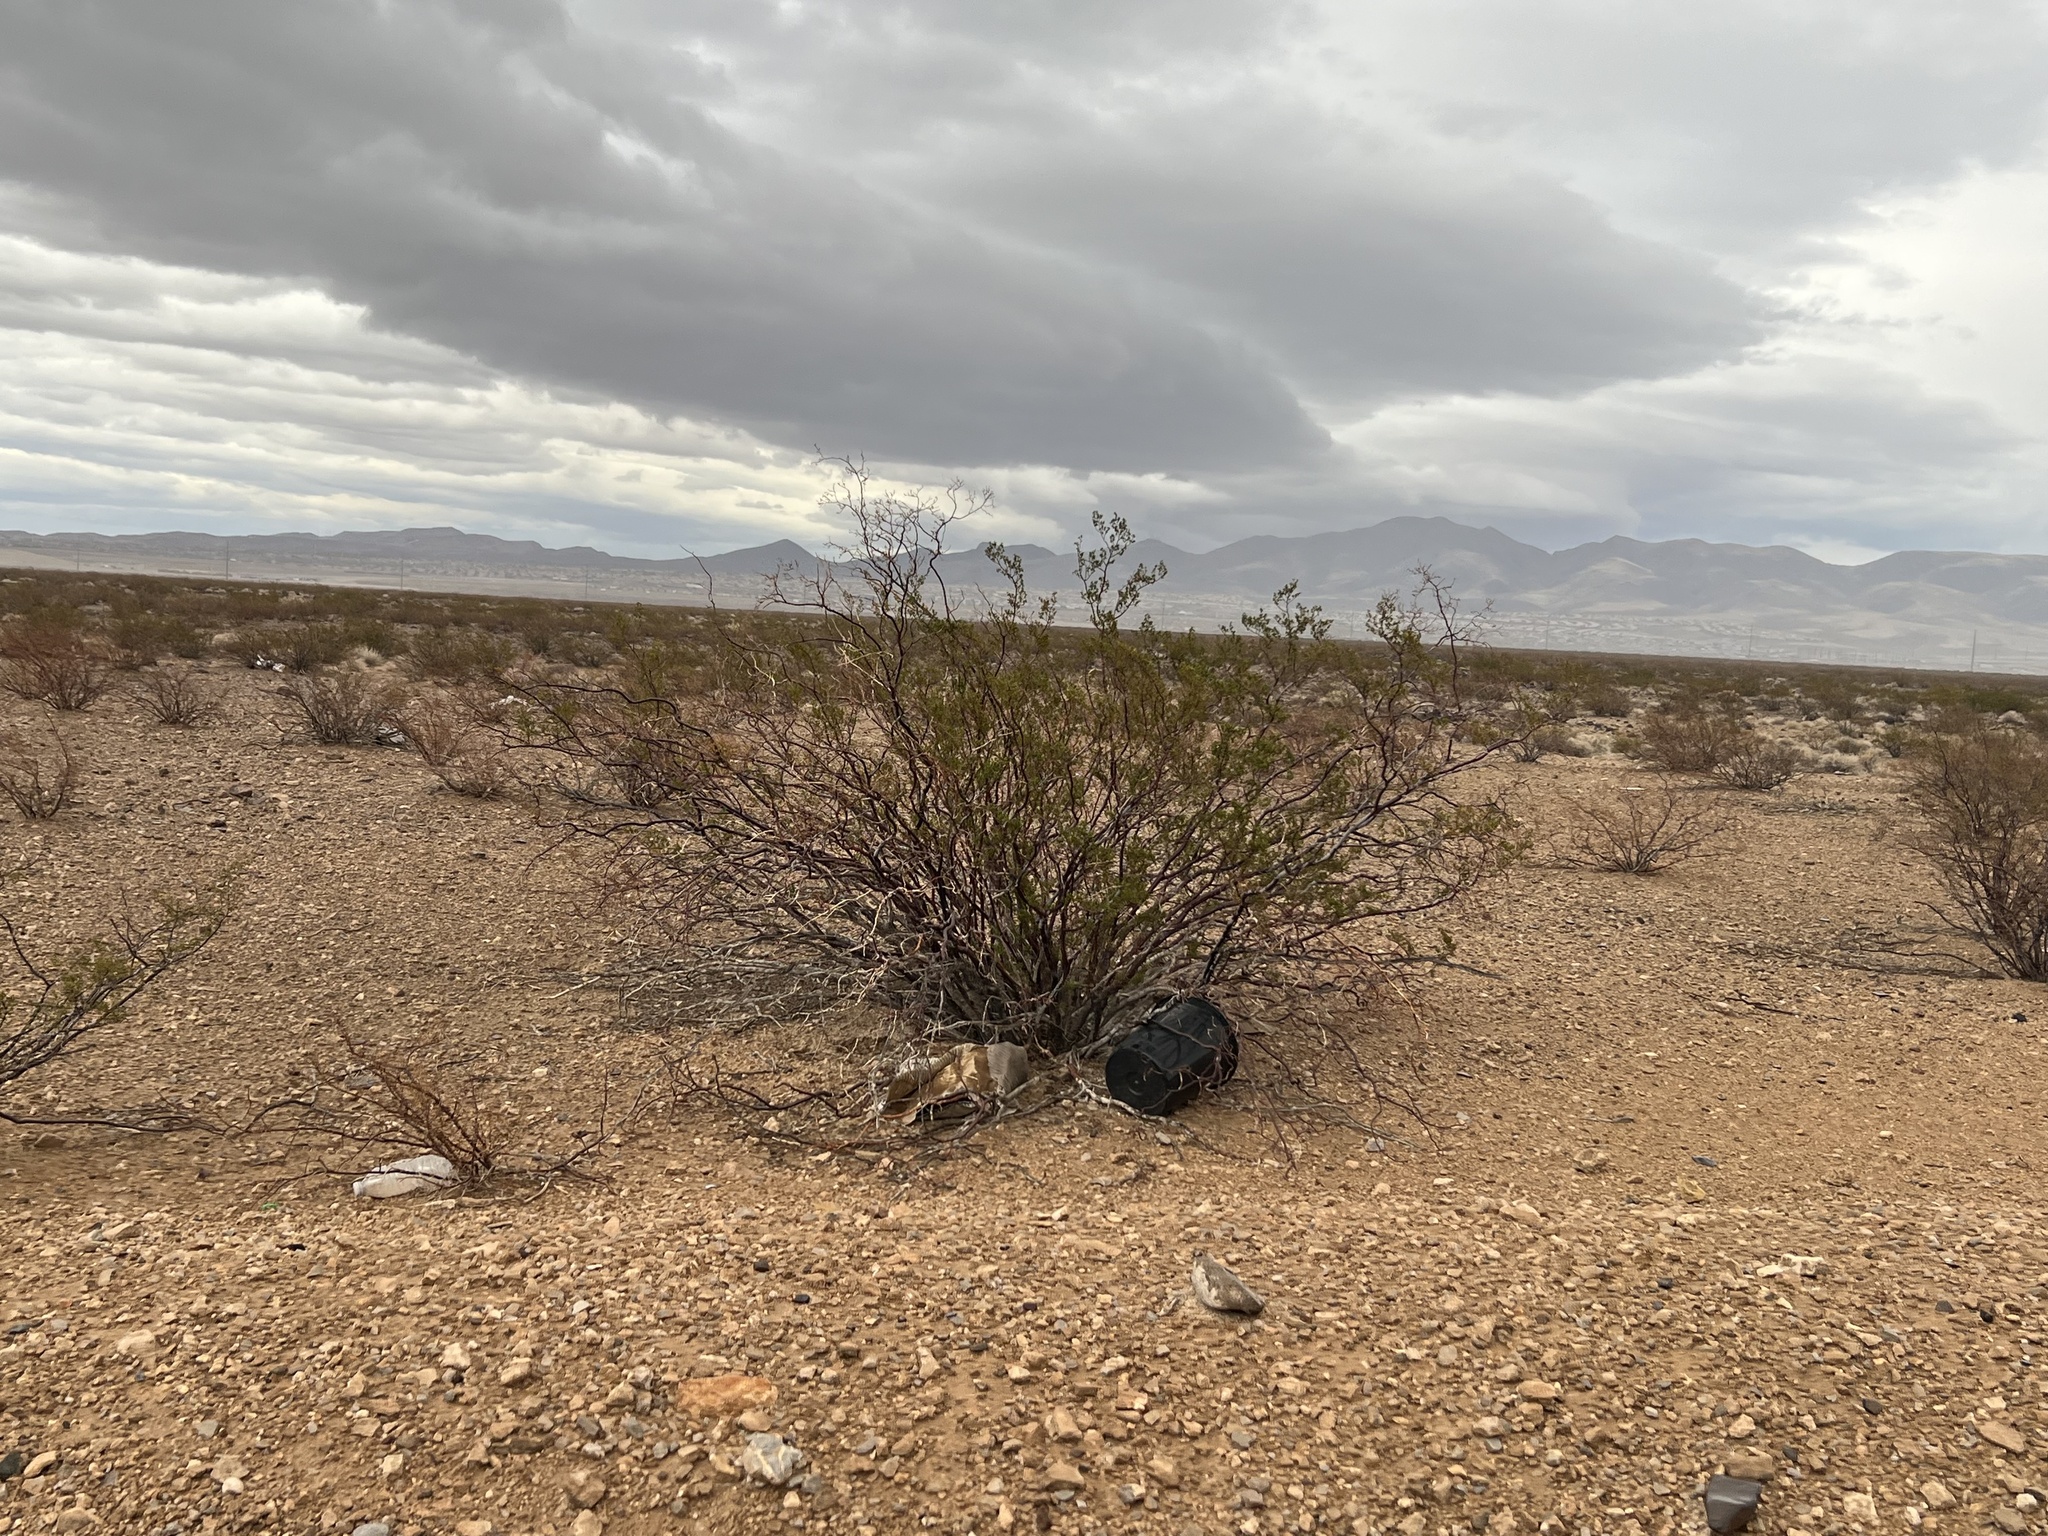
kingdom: Plantae
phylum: Tracheophyta
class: Magnoliopsida
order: Zygophyllales
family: Zygophyllaceae
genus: Larrea
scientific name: Larrea tridentata
